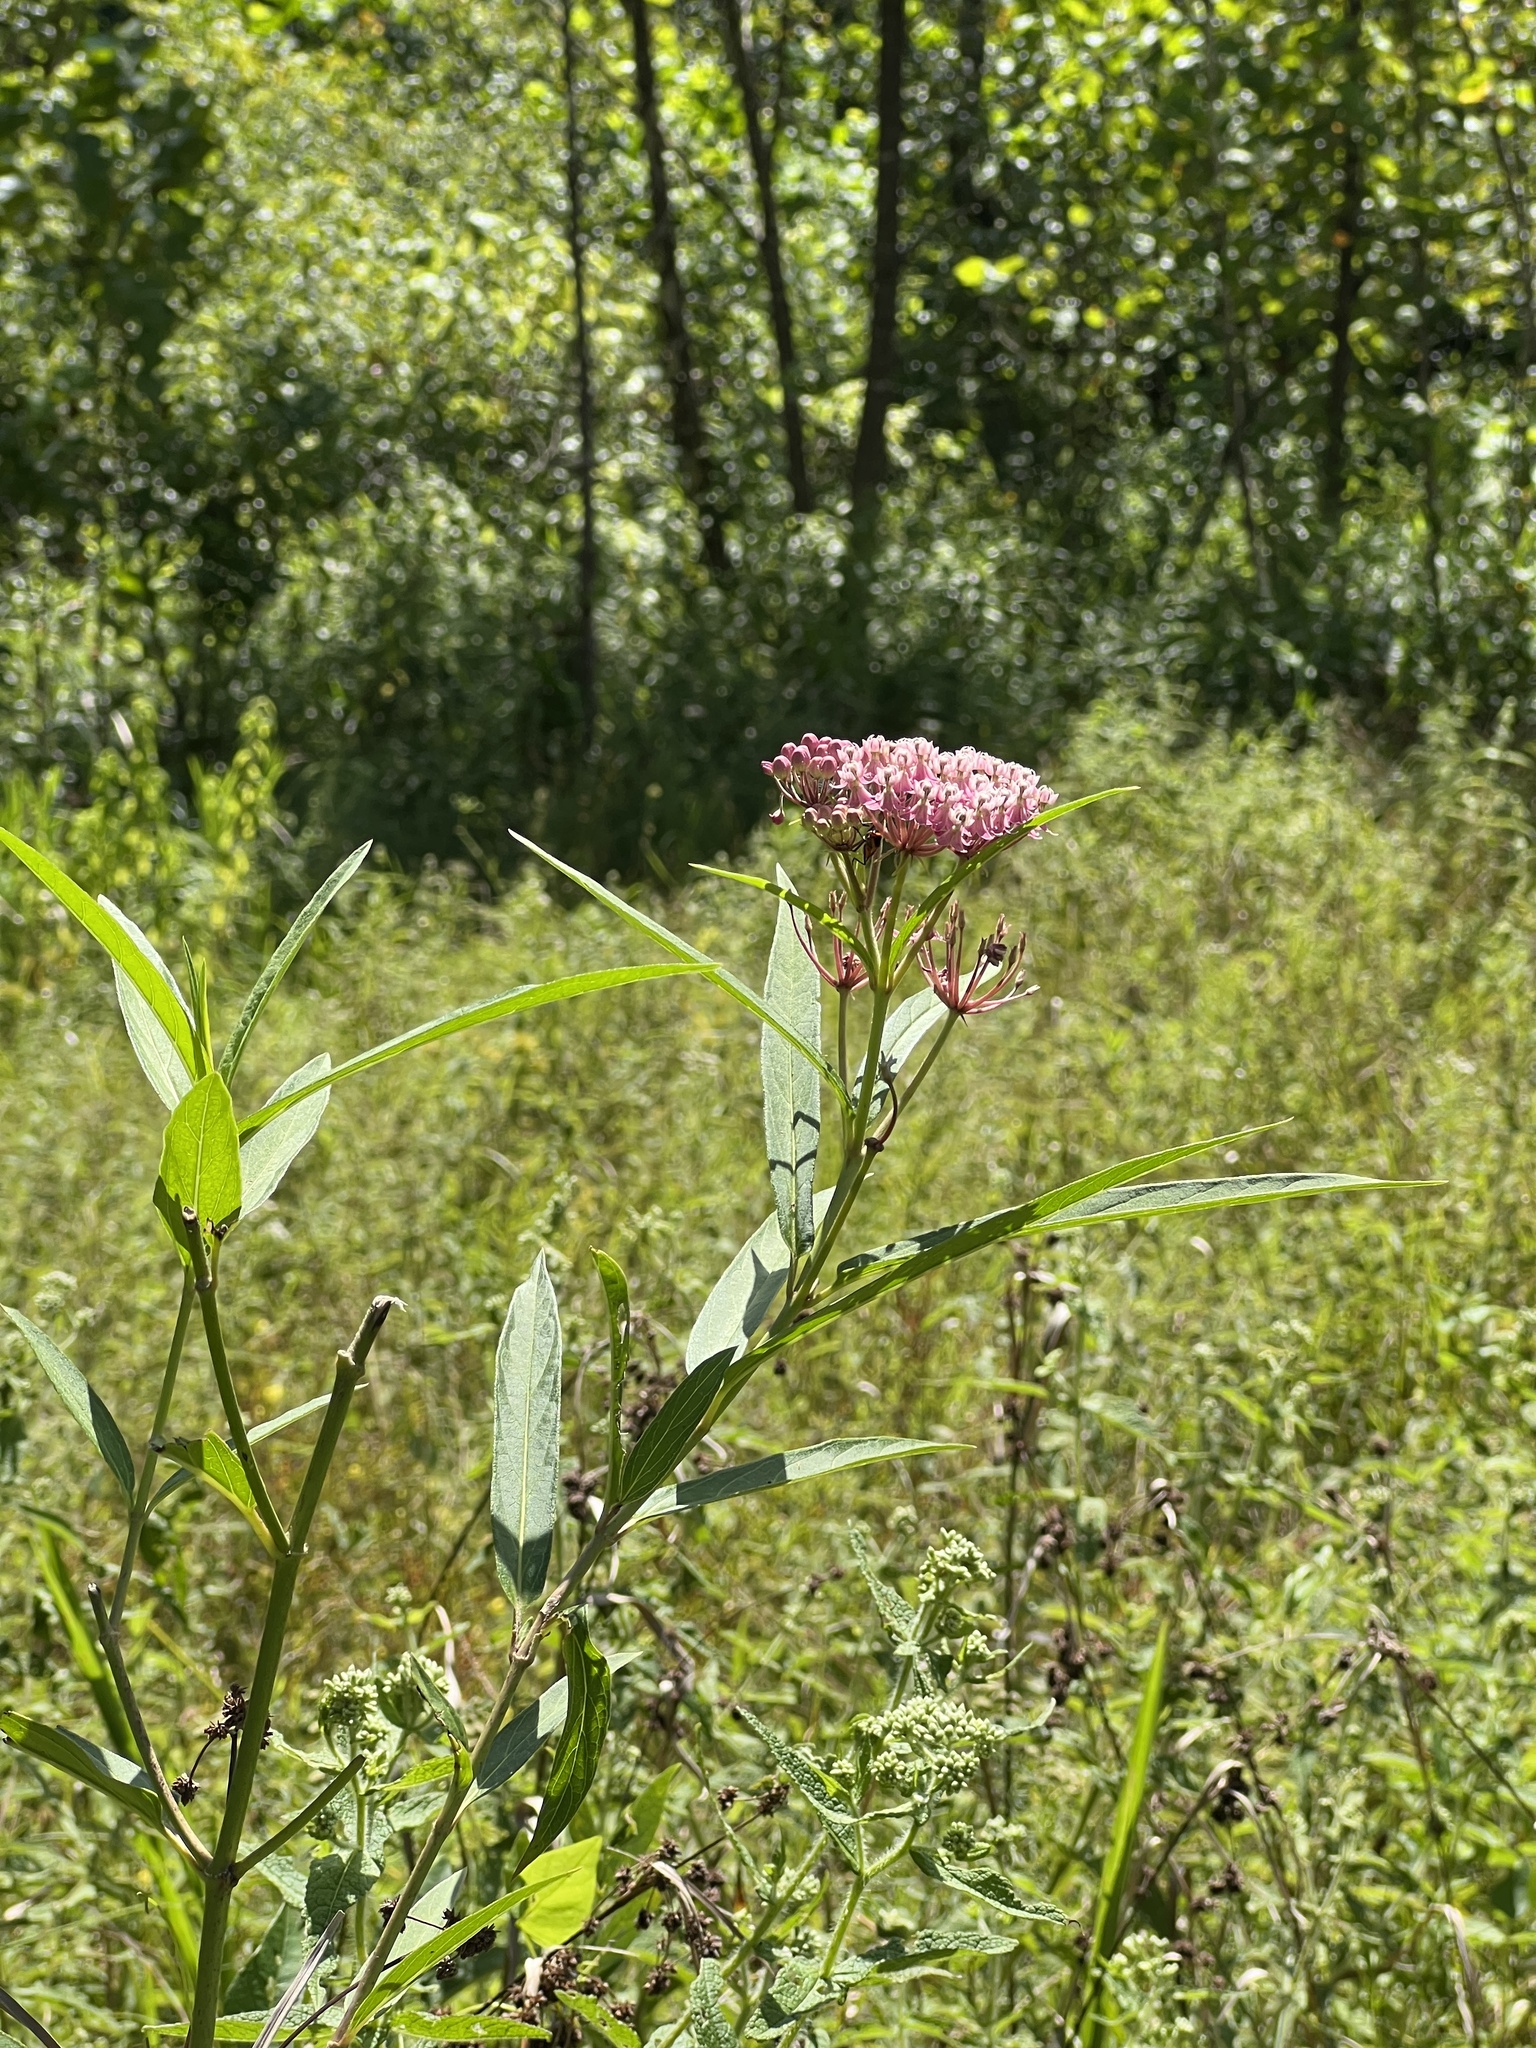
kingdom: Plantae
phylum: Tracheophyta
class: Magnoliopsida
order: Gentianales
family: Apocynaceae
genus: Asclepias
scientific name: Asclepias incarnata
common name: Swamp milkweed
